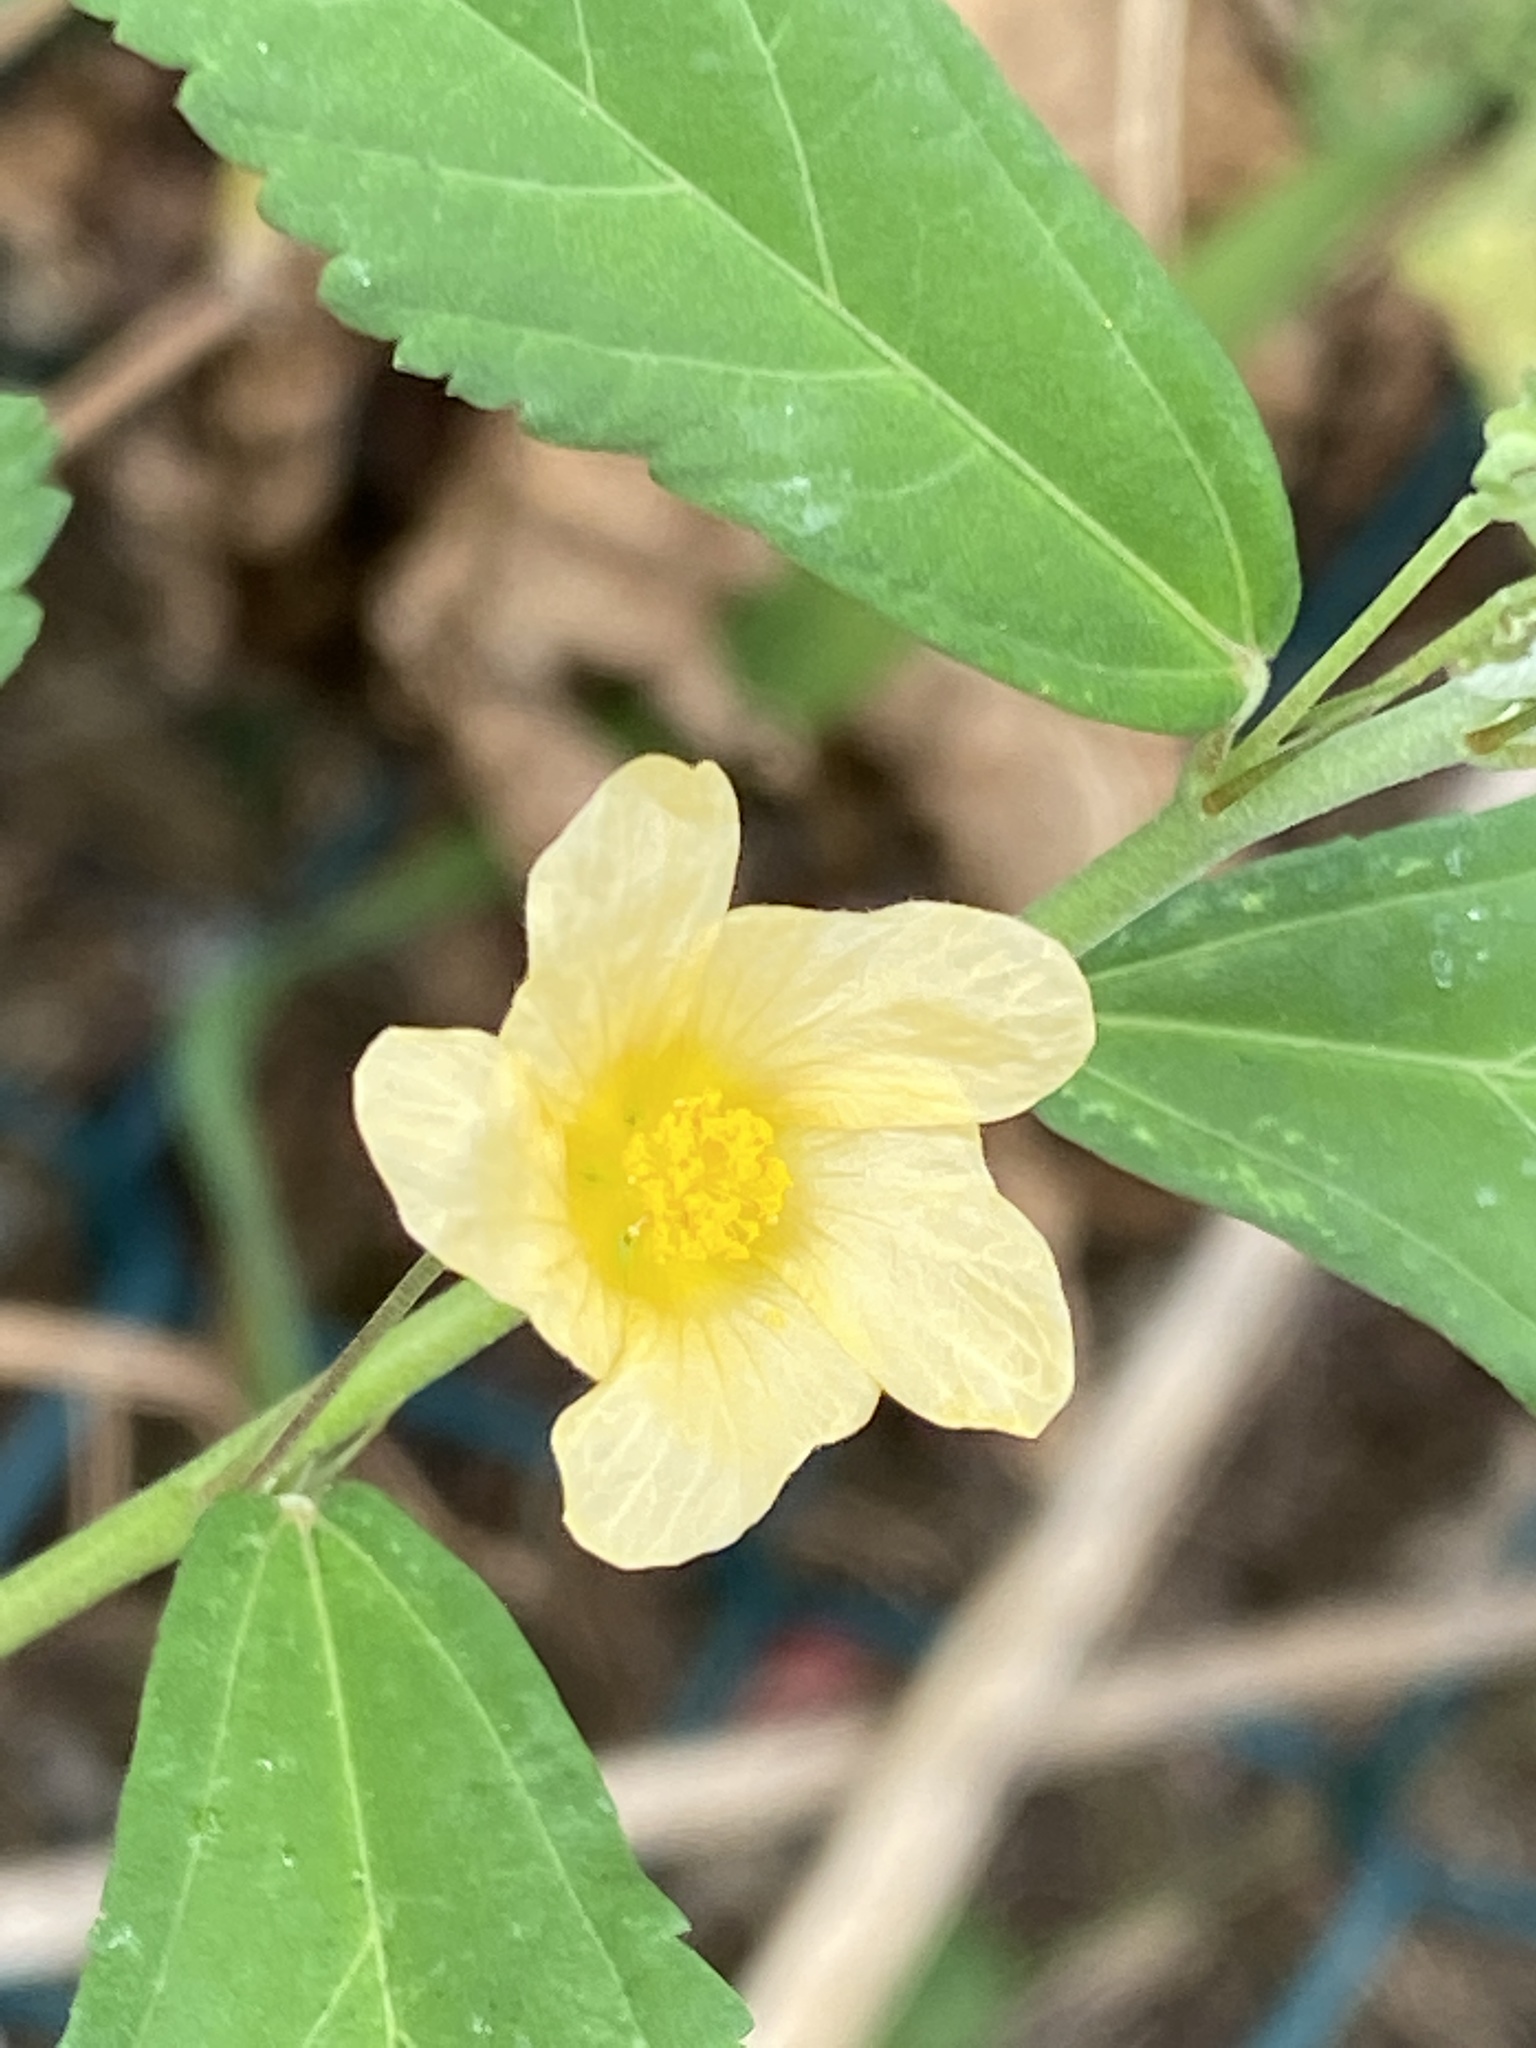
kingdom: Plantae
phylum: Tracheophyta
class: Magnoliopsida
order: Malvales
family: Malvaceae
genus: Sida
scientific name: Sida rhombifolia
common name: Queensland-hemp
